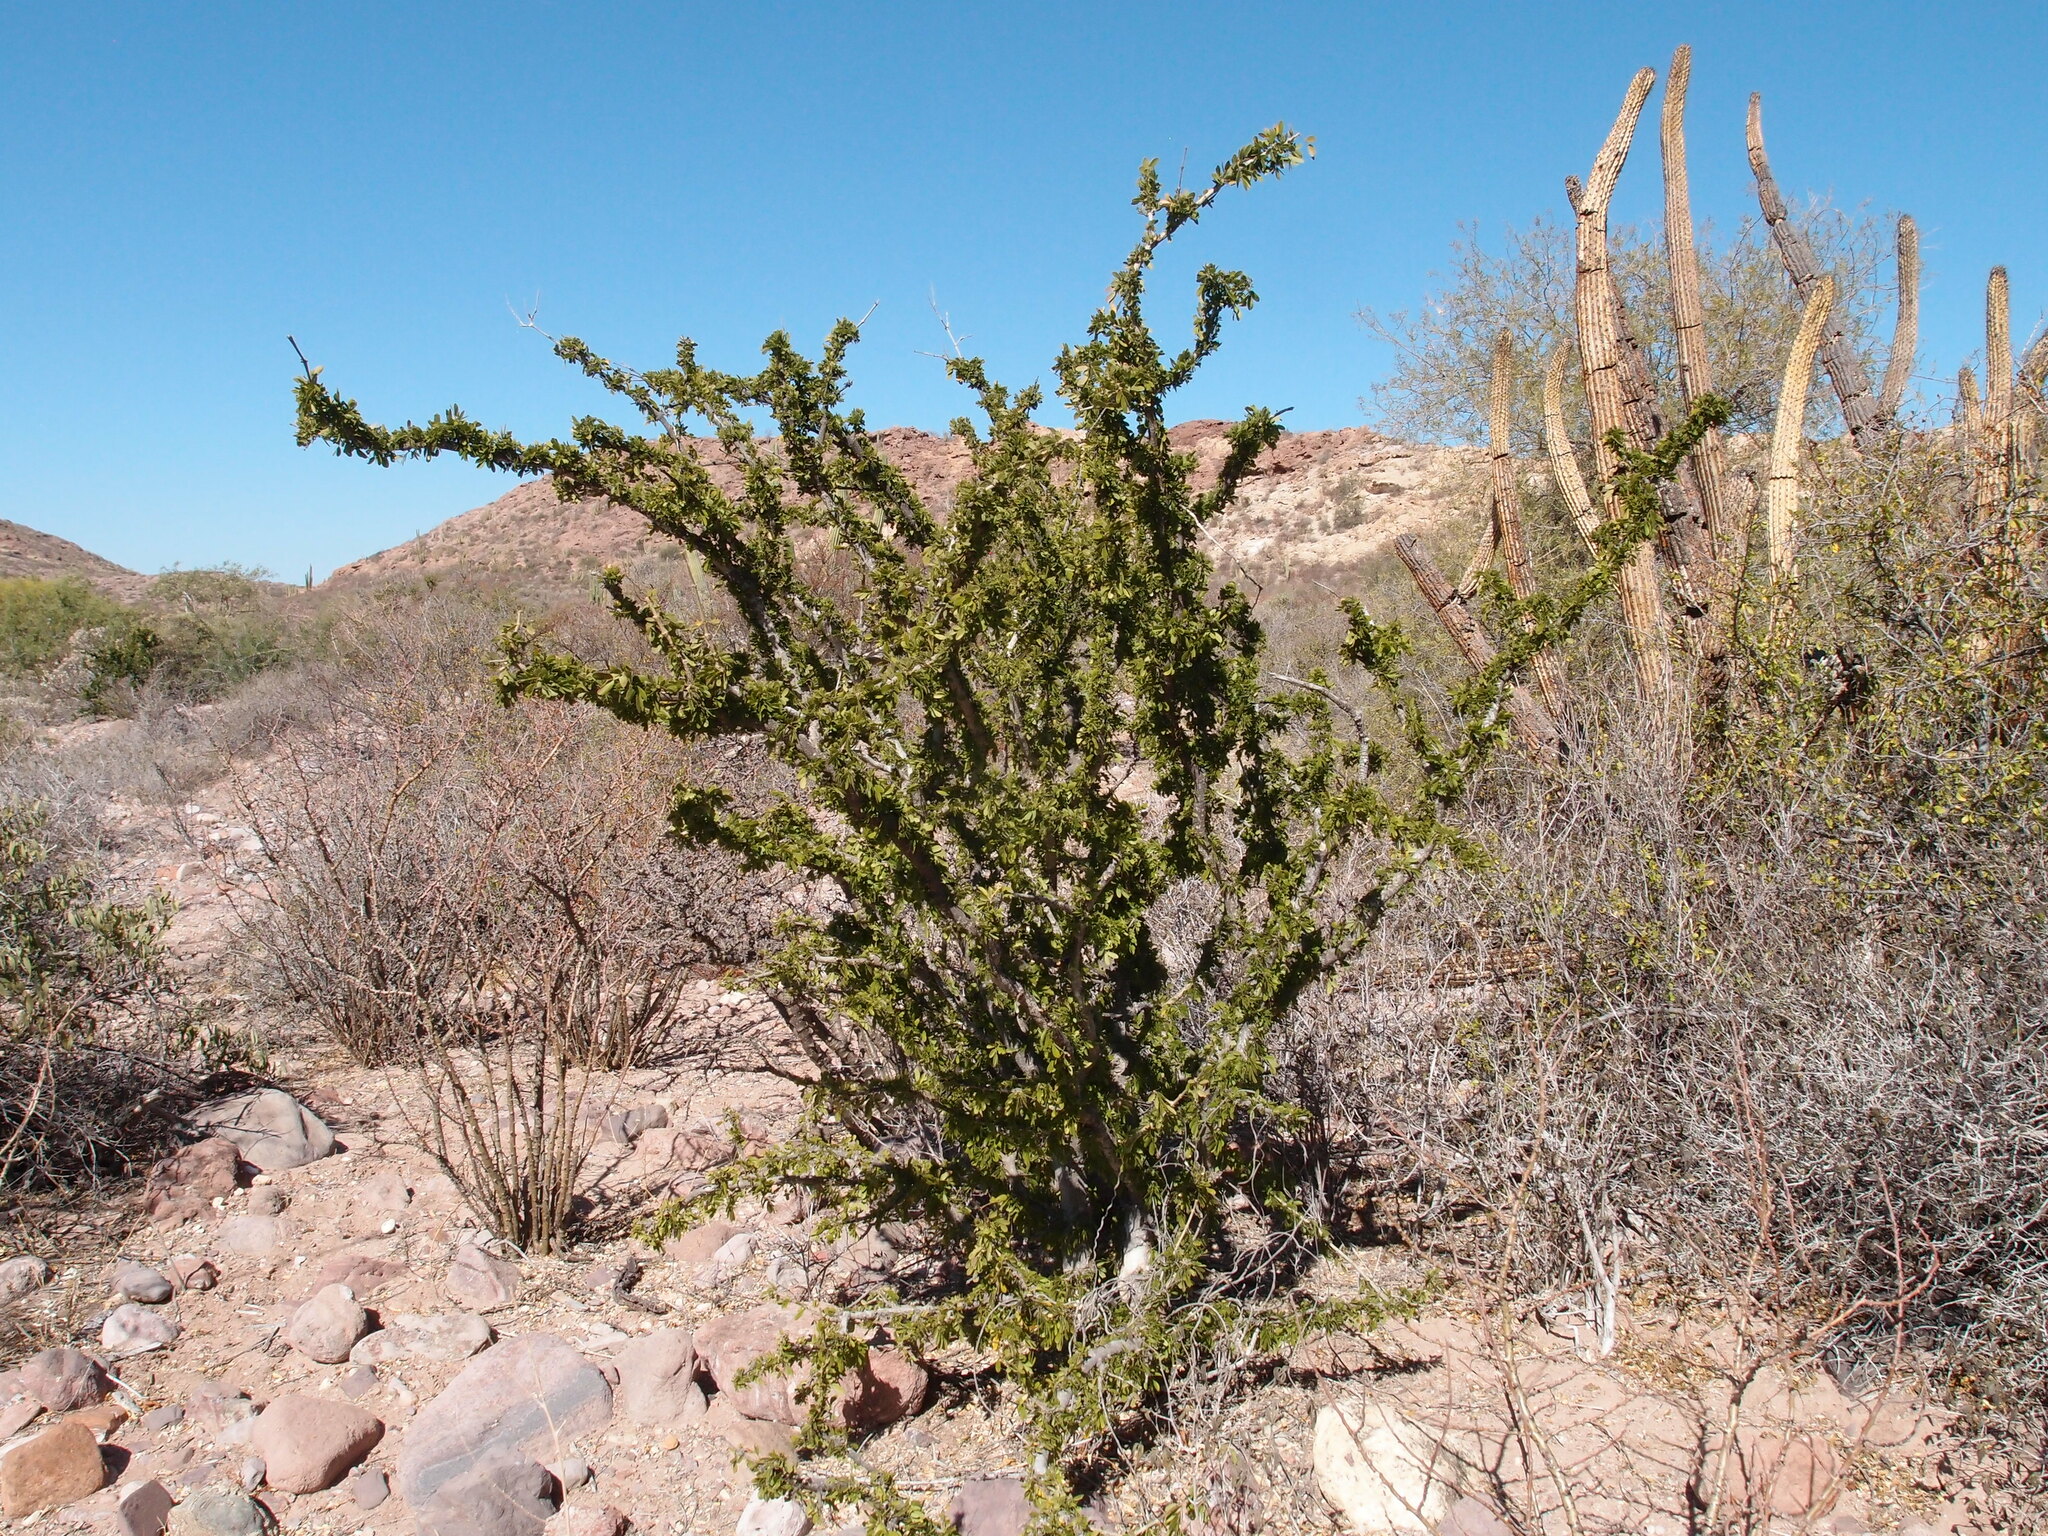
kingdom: Plantae
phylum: Tracheophyta
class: Magnoliopsida
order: Zygophyllales
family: Zygophyllaceae
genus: Guaiacum
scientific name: Guaiacum coulteri
